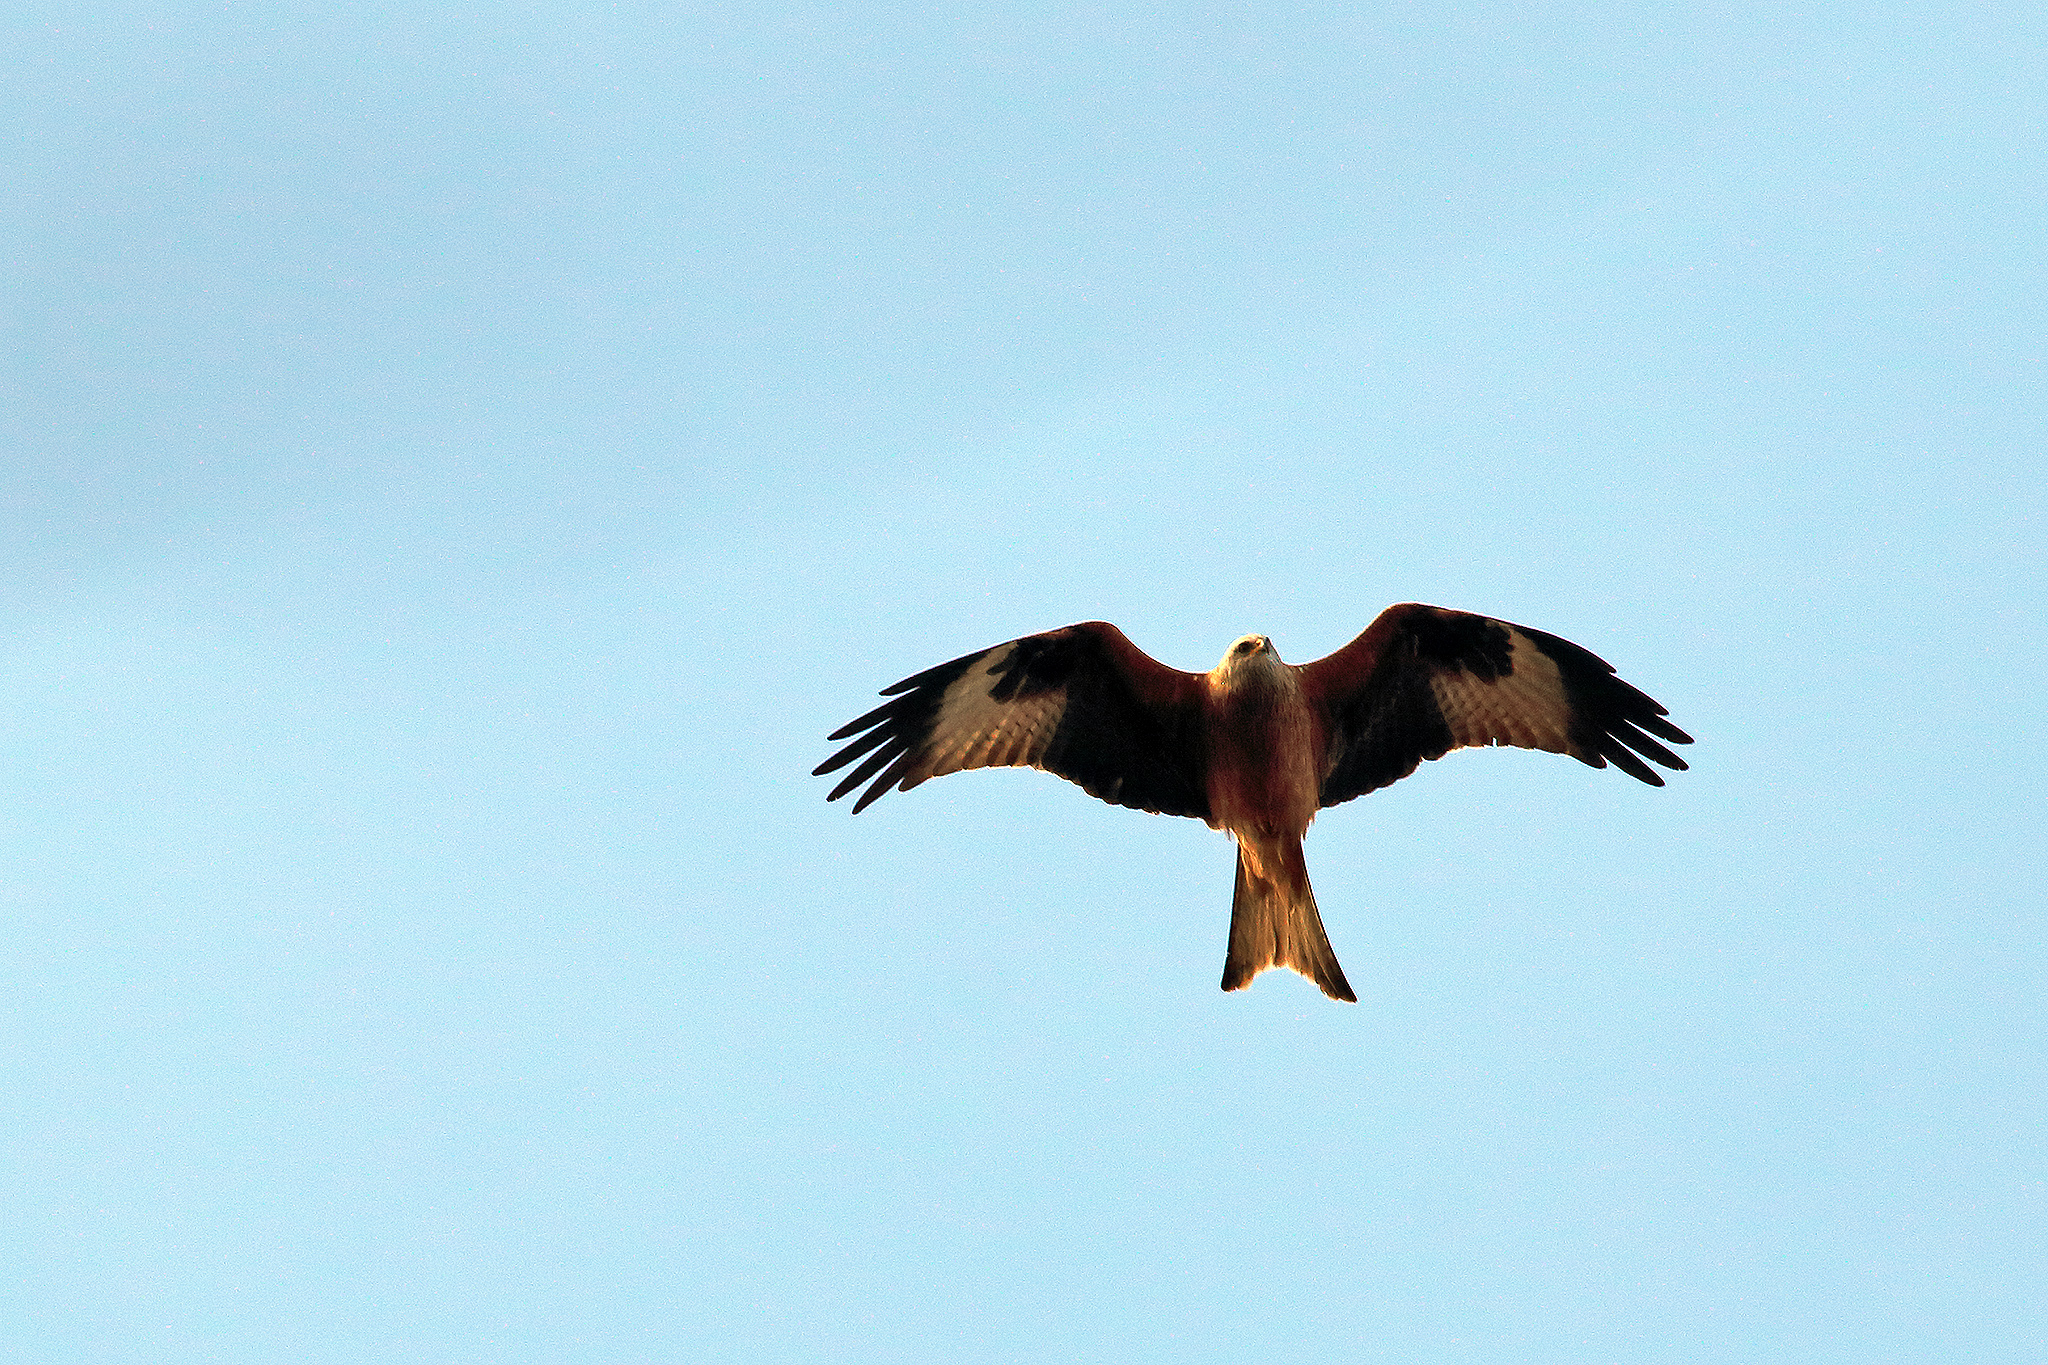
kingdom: Animalia
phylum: Chordata
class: Aves
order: Accipitriformes
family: Accipitridae
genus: Milvus
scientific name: Milvus milvus
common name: Red kite
